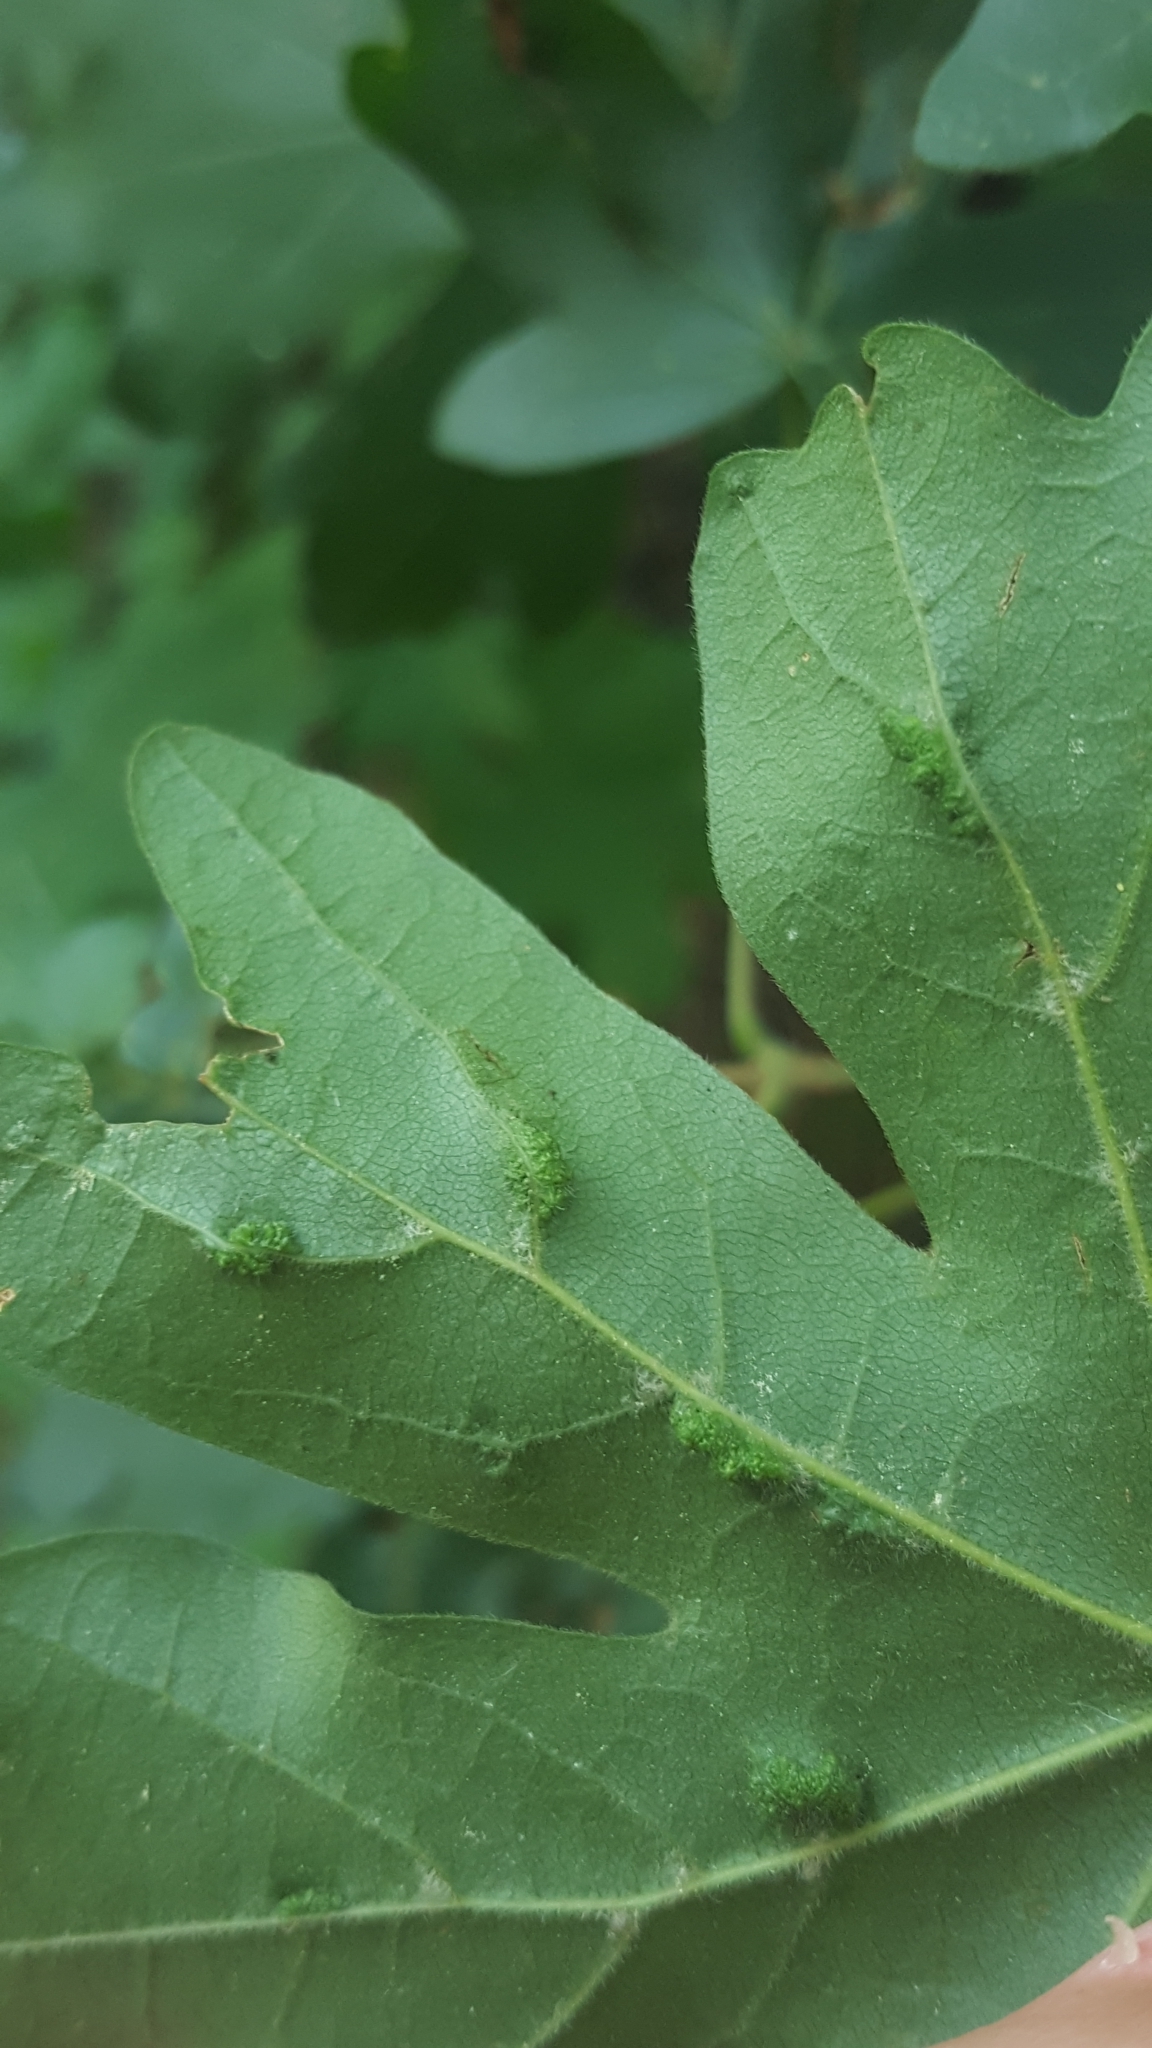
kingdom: Animalia
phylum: Arthropoda
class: Arachnida
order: Trombidiformes
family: Eriophyidae
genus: Aceria
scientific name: Aceria carinifex
